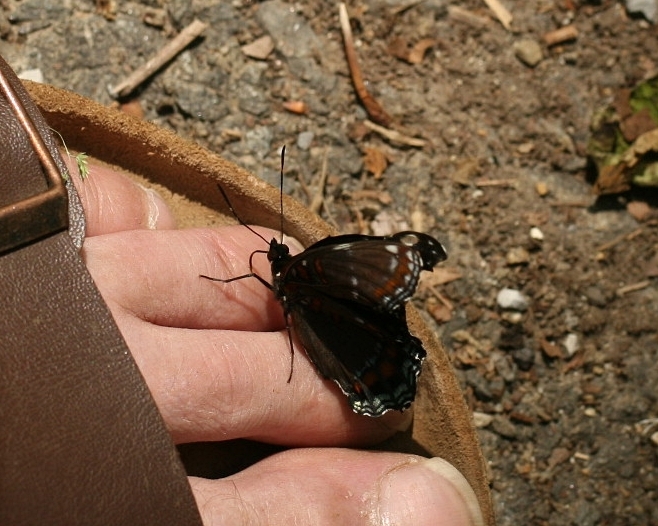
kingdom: Animalia
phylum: Arthropoda
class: Insecta
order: Lepidoptera
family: Nymphalidae
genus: Limenitis
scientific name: Limenitis
